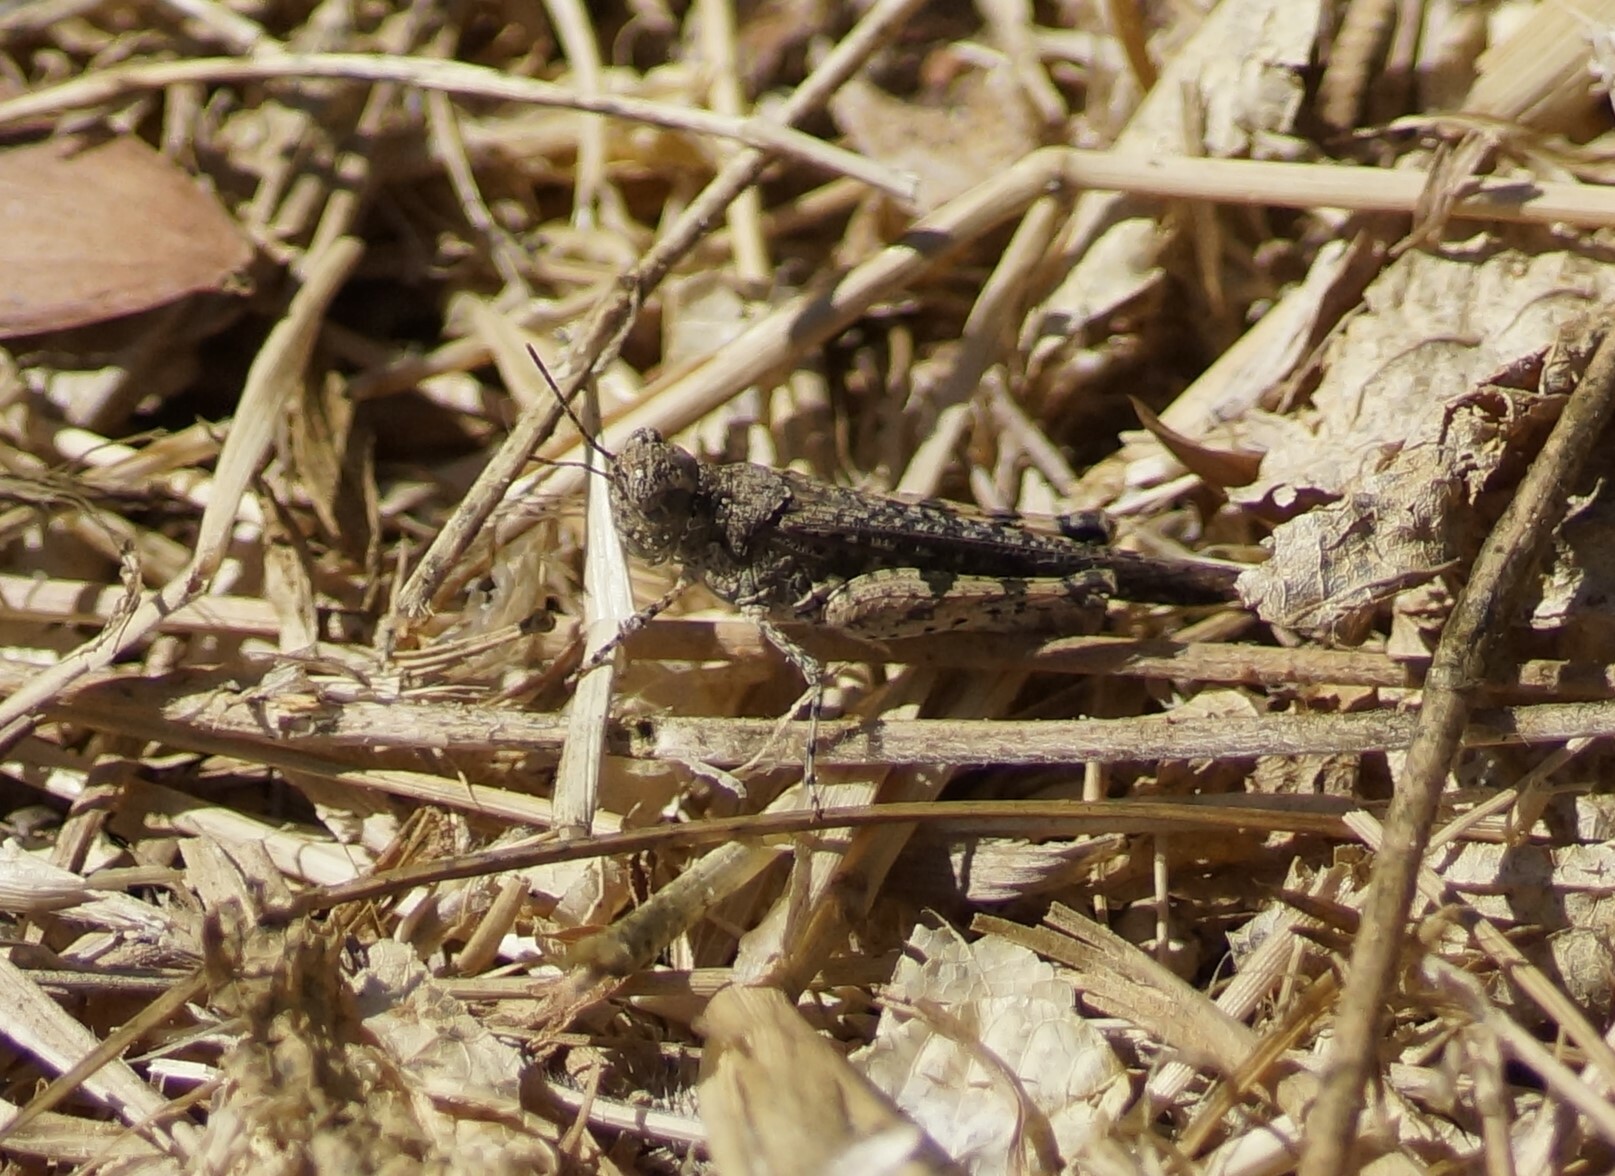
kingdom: Animalia
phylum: Arthropoda
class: Insecta
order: Orthoptera
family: Acrididae
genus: Pycnostictus
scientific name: Pycnostictus seriatus
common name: Common bandwing
